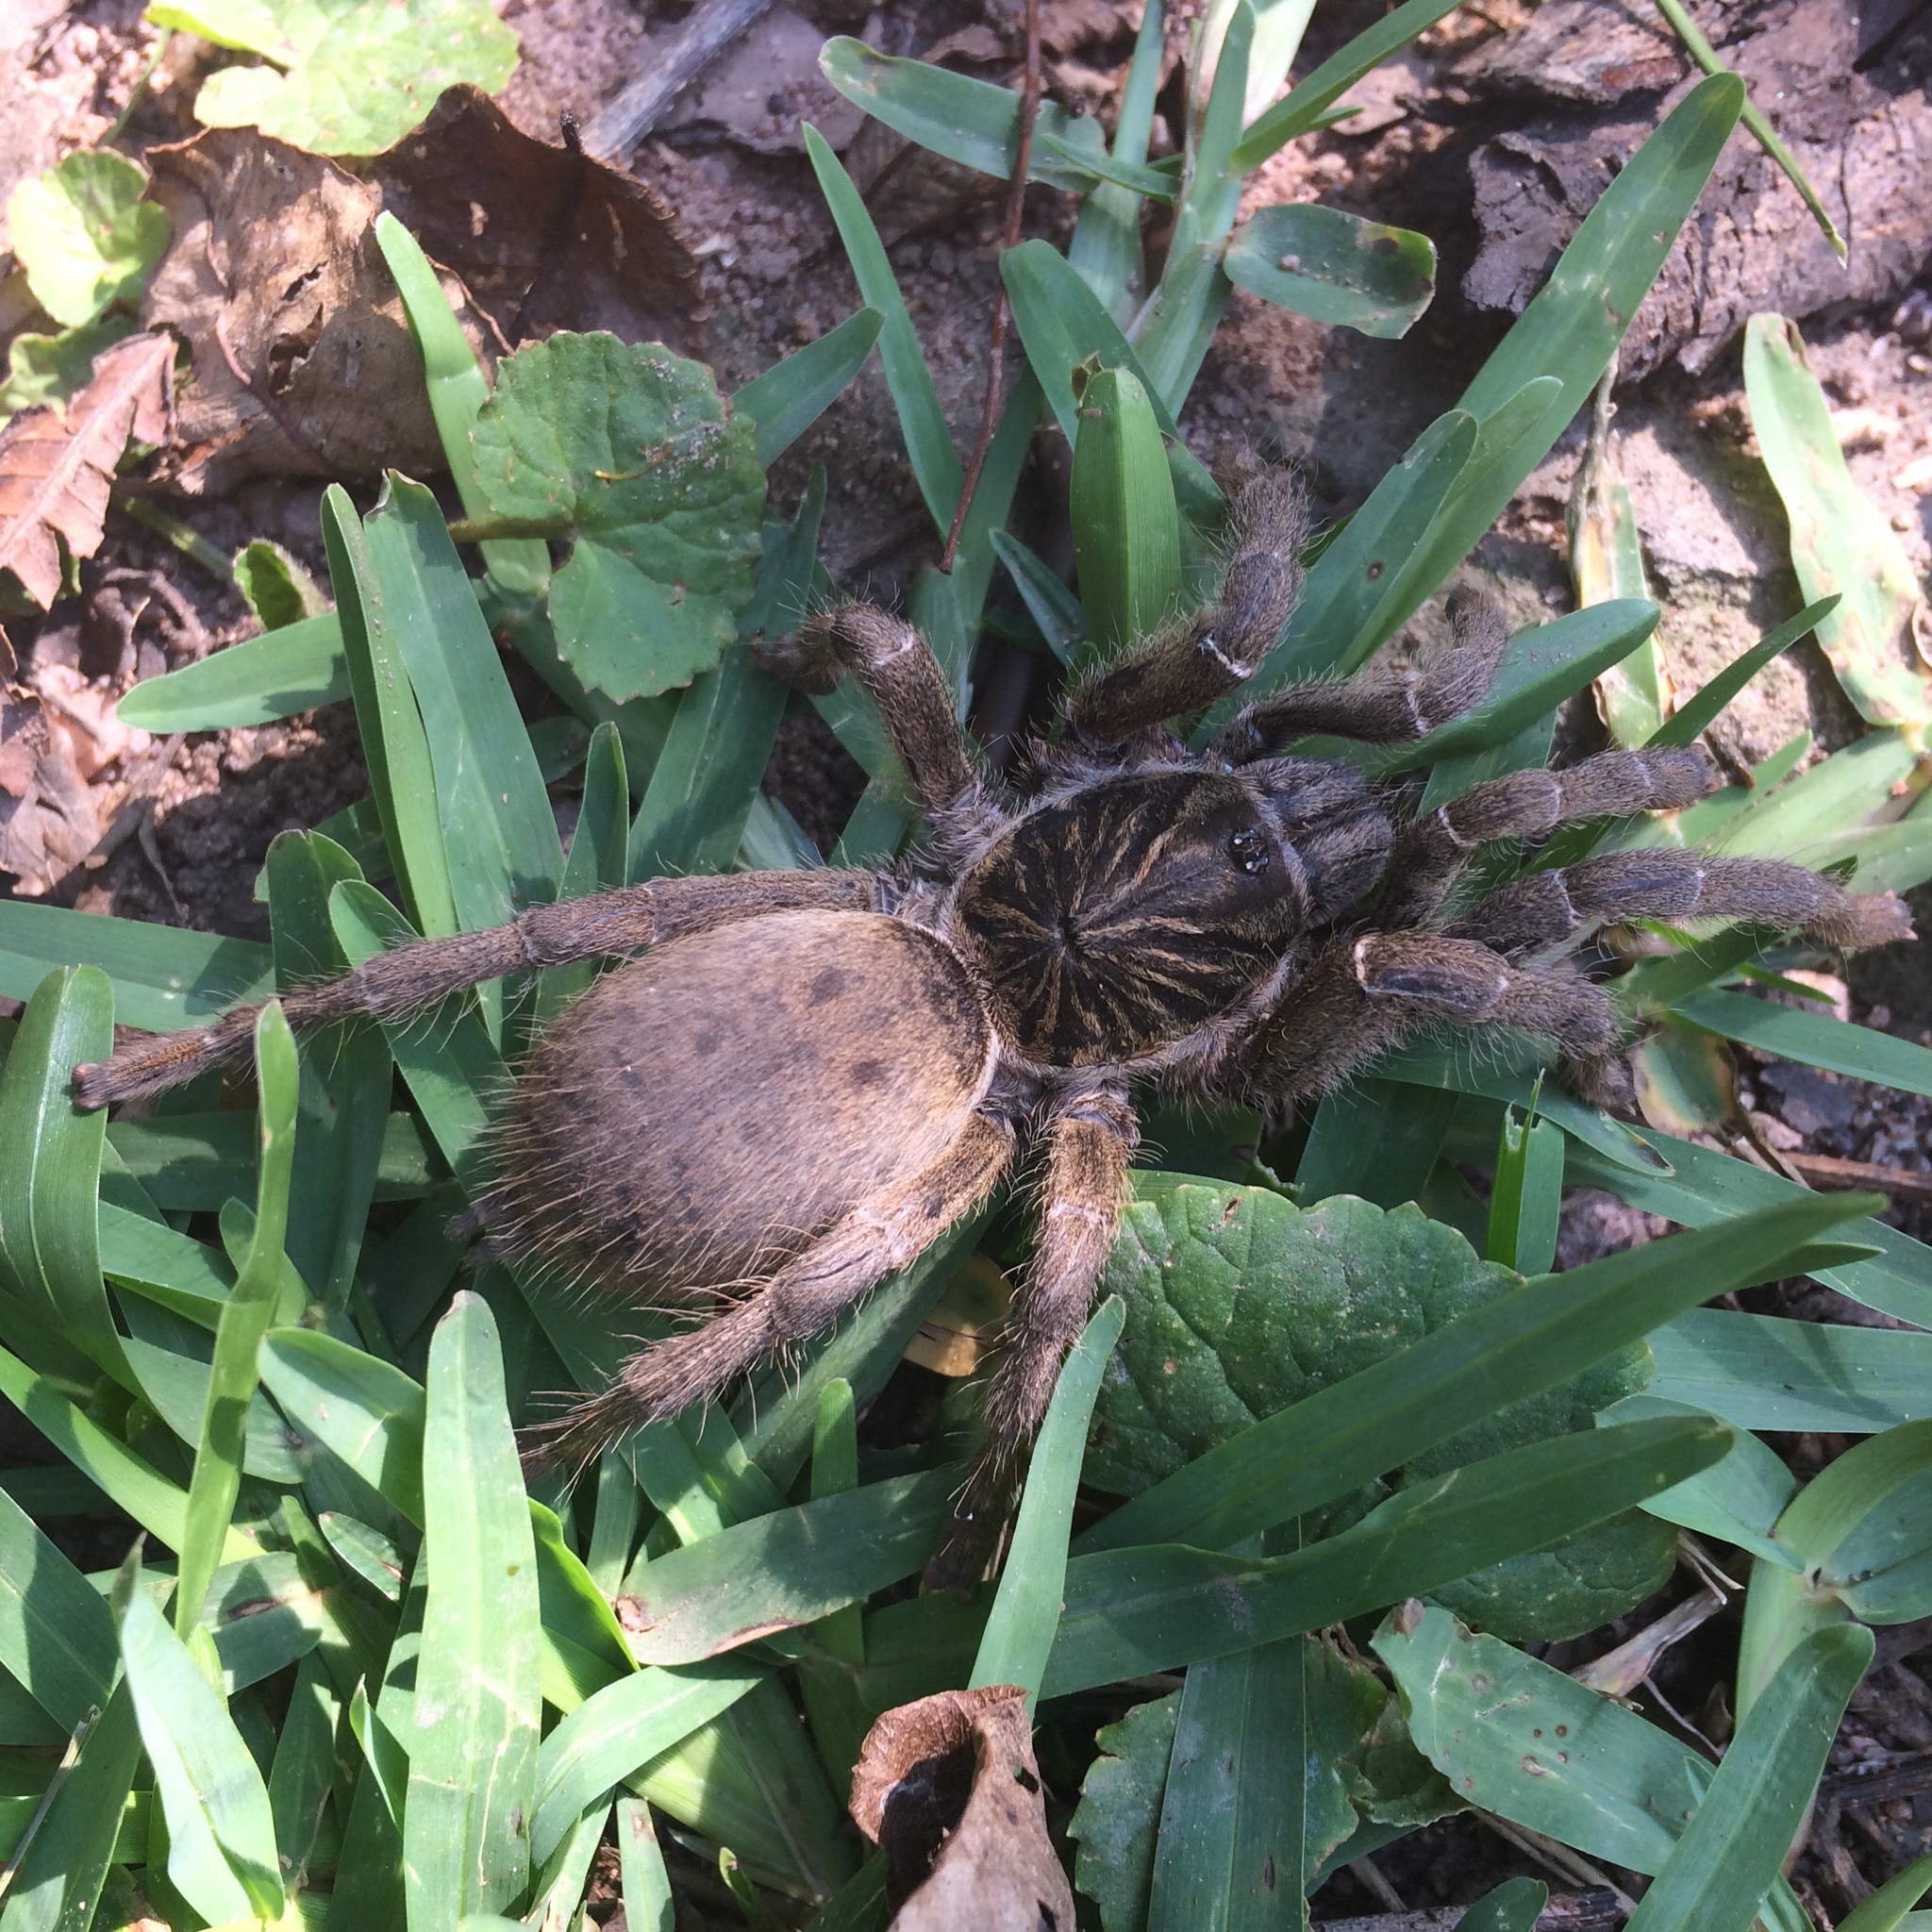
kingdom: Animalia
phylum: Arthropoda
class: Arachnida
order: Araneae
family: Theraphosidae
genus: Harpactira
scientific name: Harpactira curator
